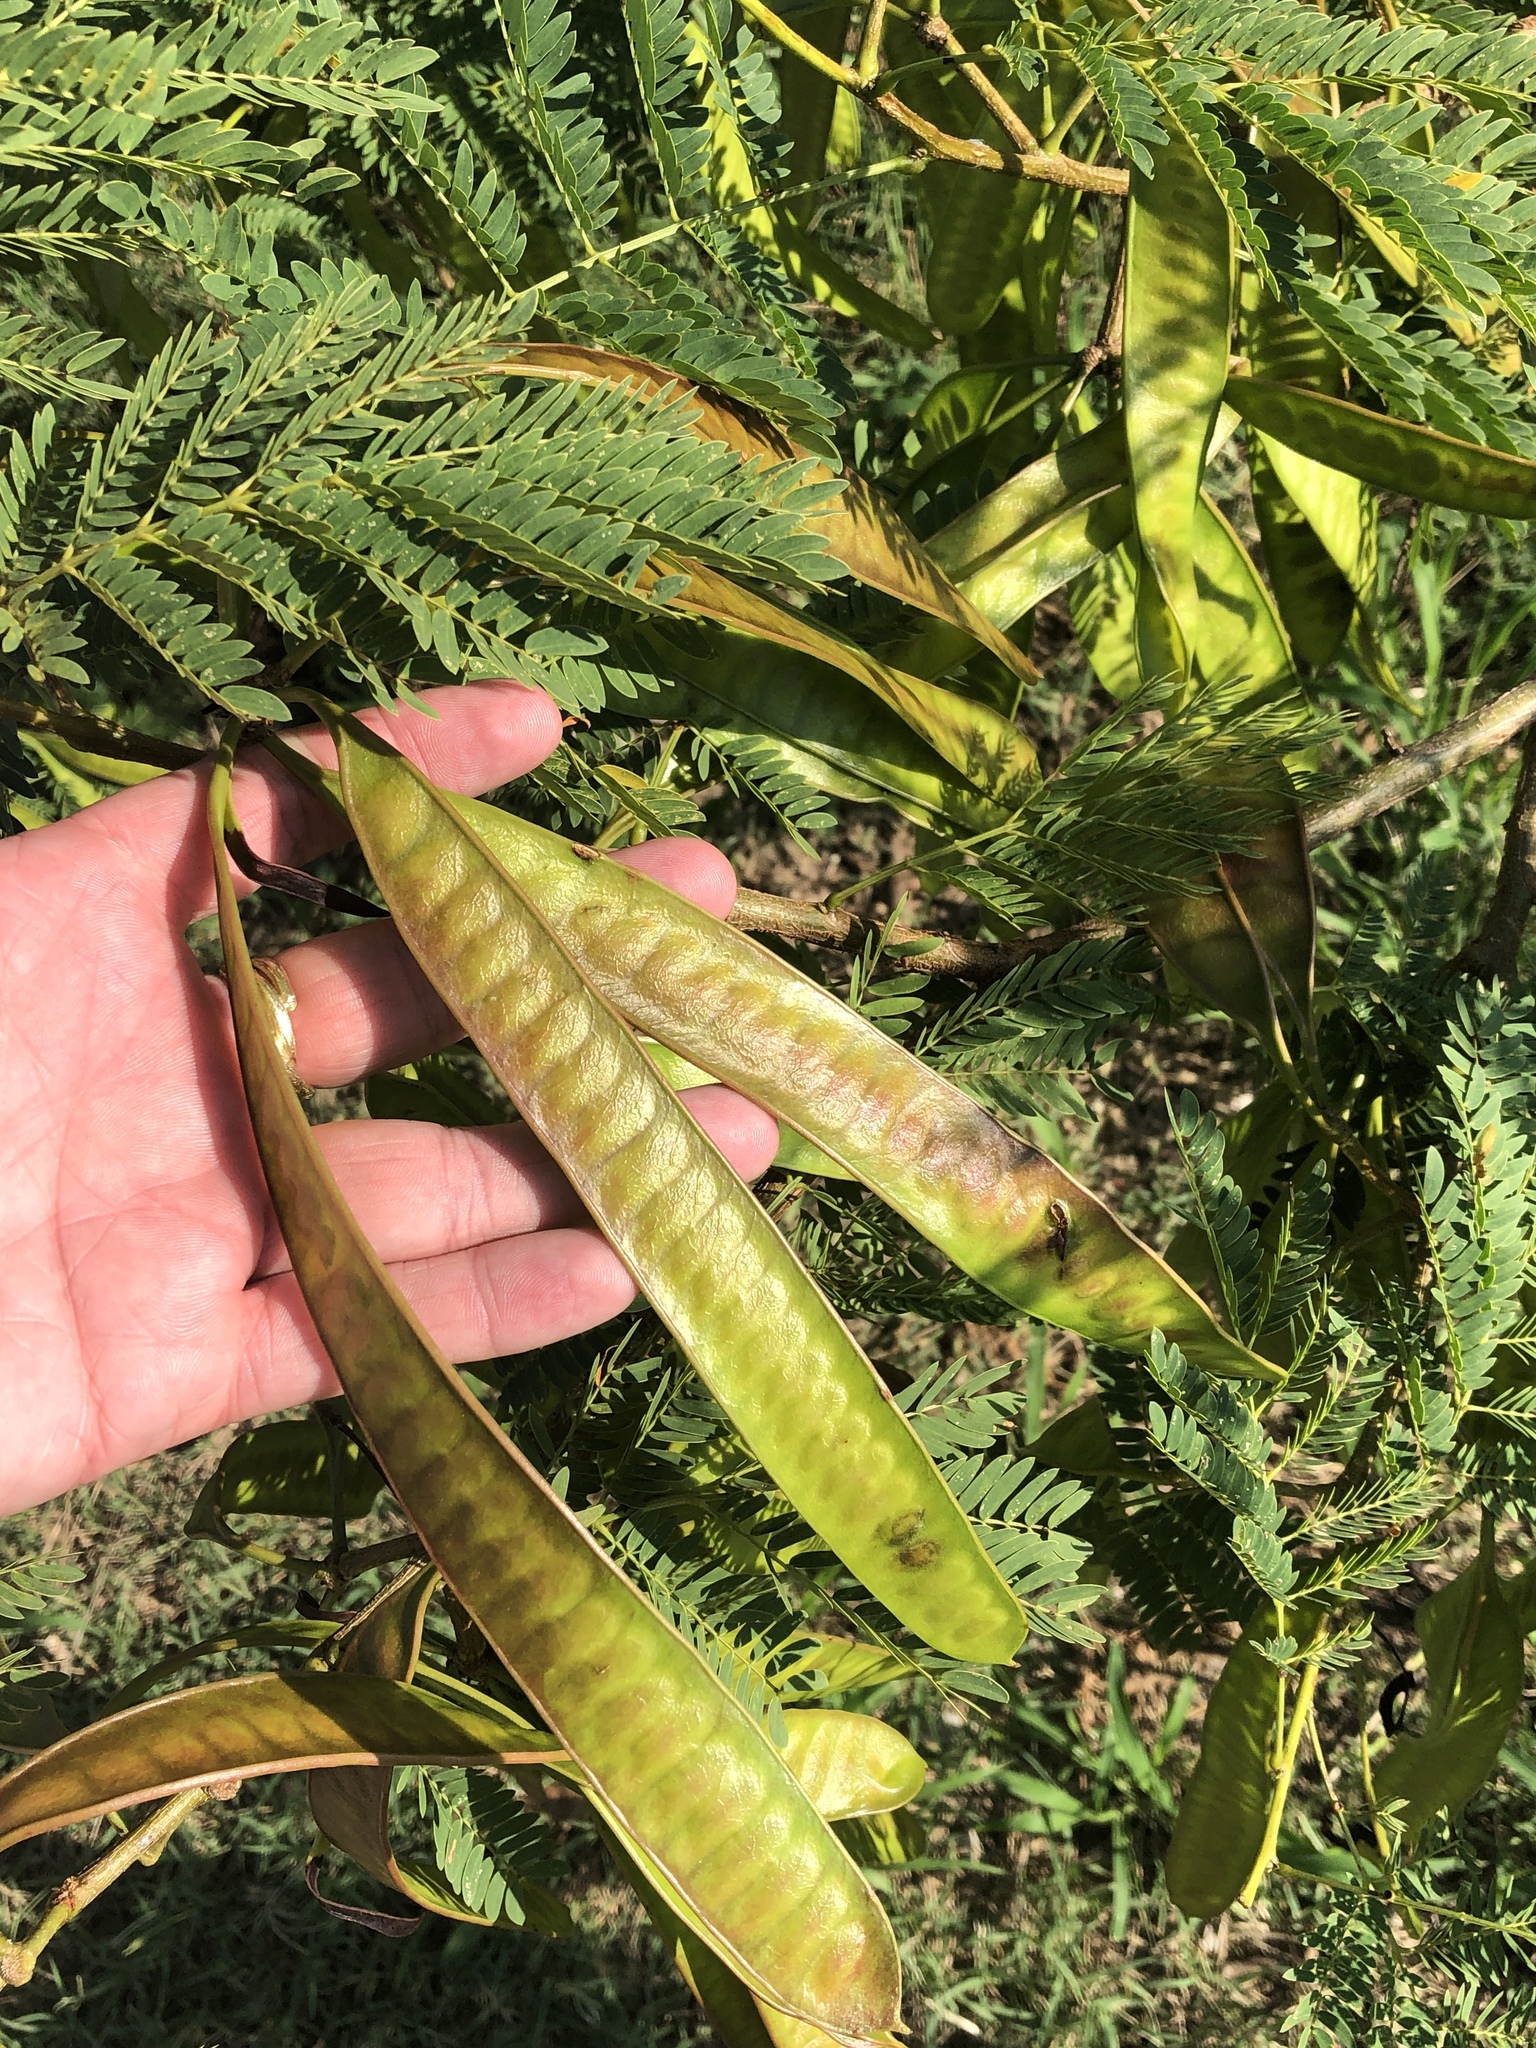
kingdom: Plantae
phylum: Tracheophyta
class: Magnoliopsida
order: Fabales
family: Fabaceae
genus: Leucaena
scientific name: Leucaena leucocephala
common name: White leadtree
